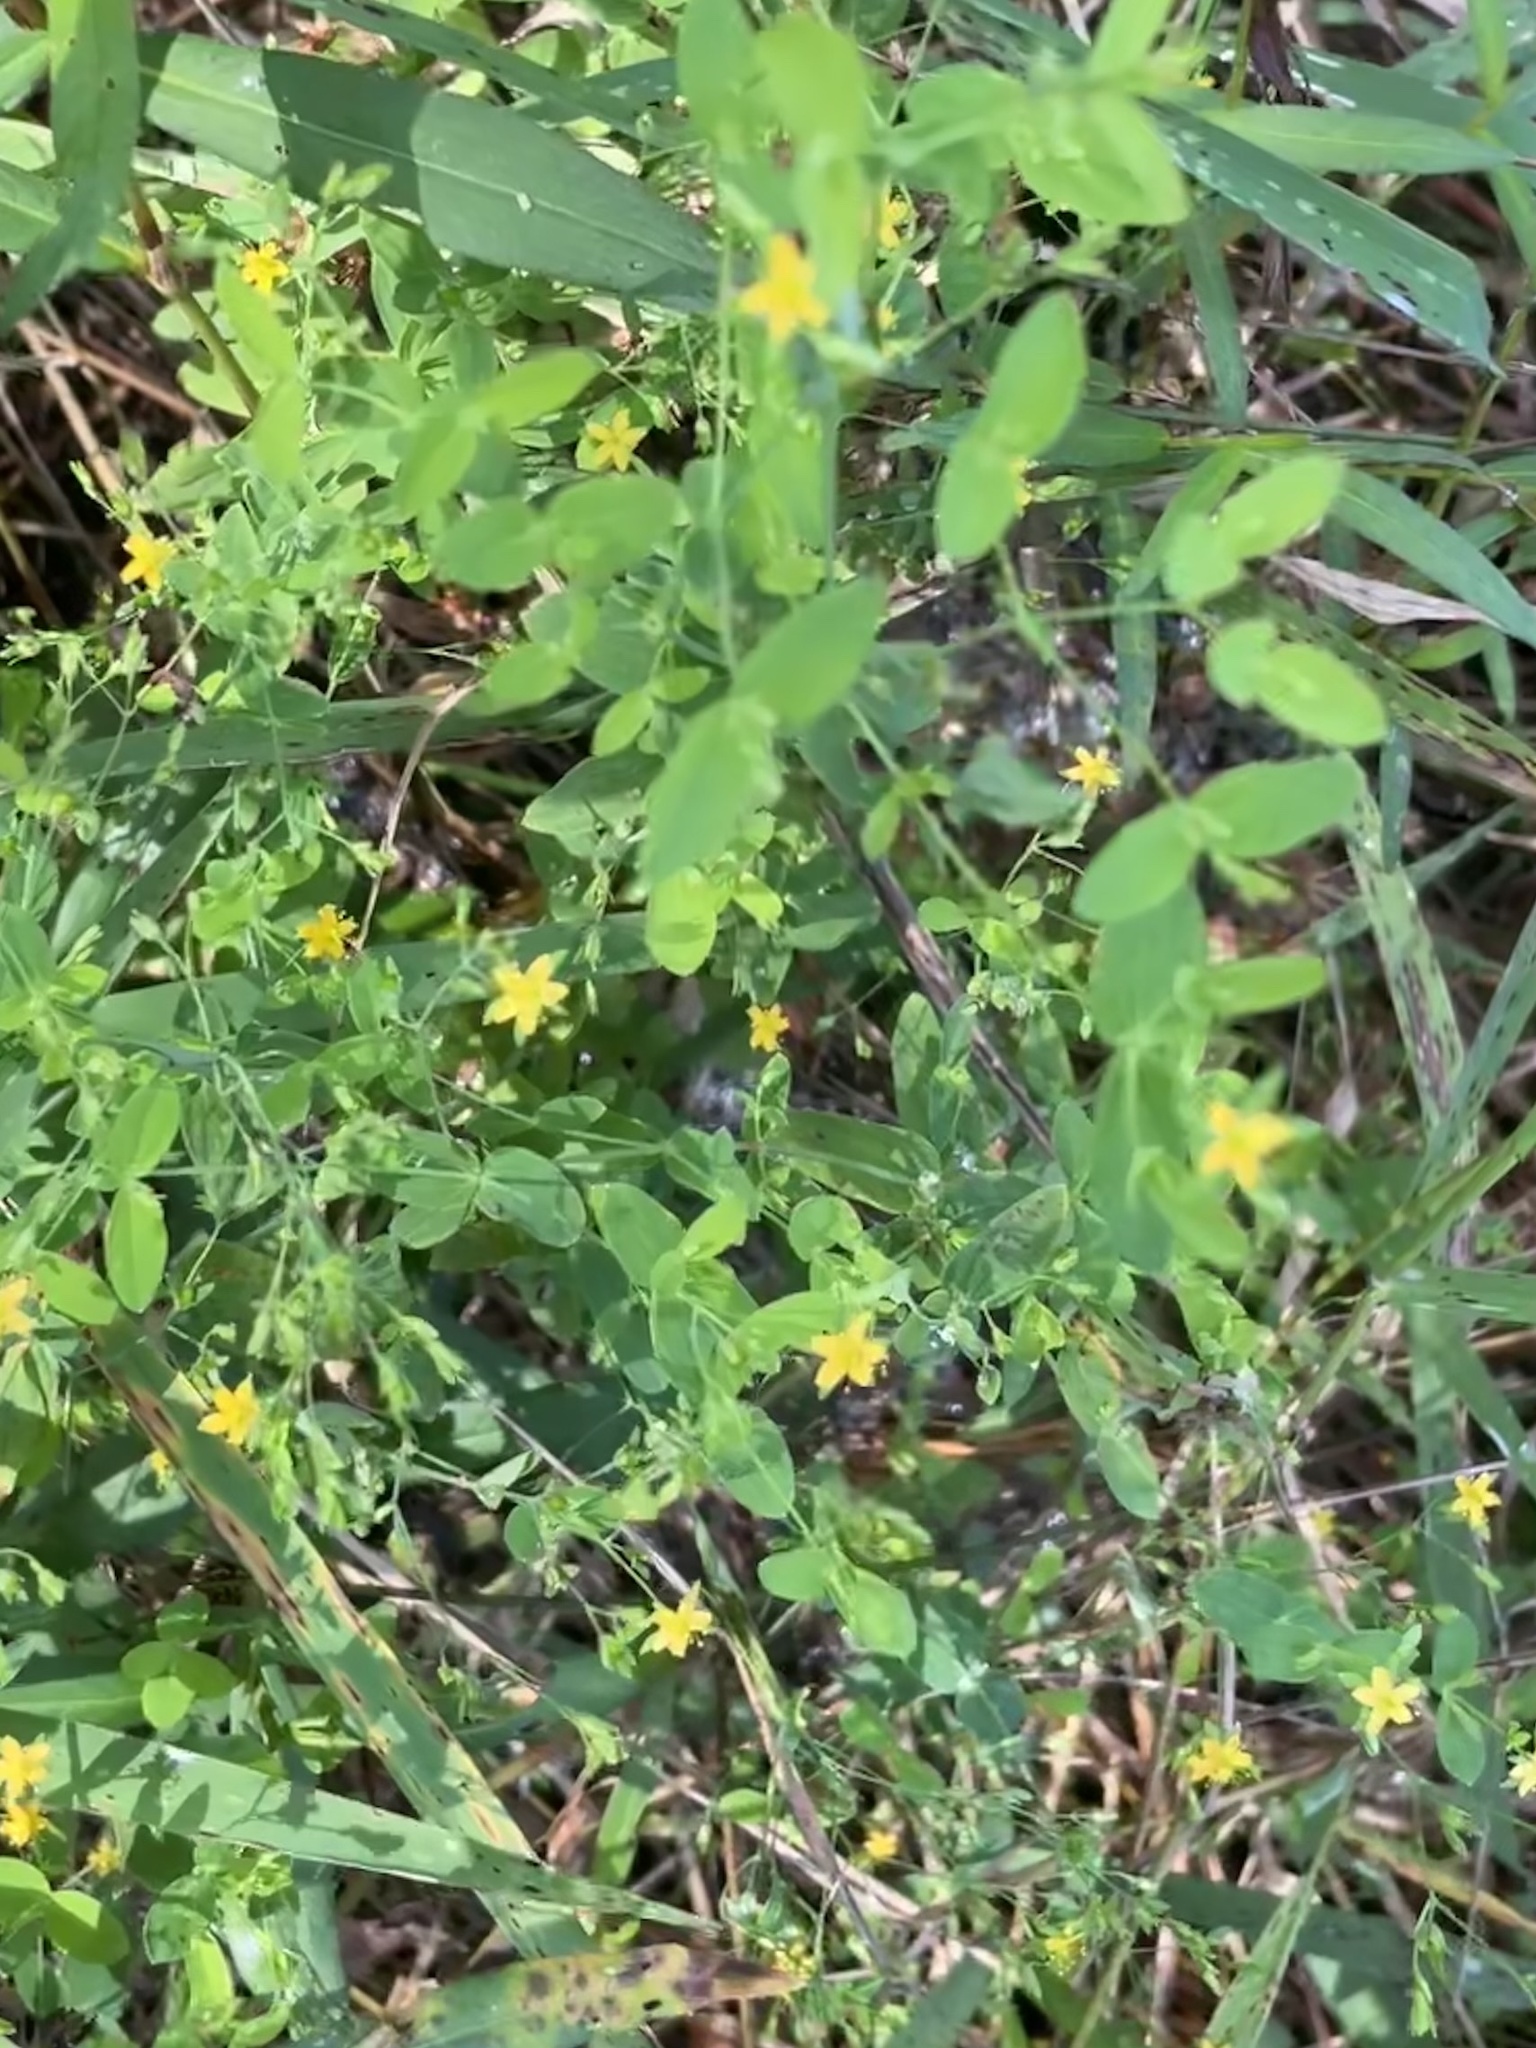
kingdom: Plantae
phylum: Tracheophyta
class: Magnoliopsida
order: Malpighiales
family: Hypericaceae
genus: Hypericum
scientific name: Hypericum mutilum
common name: Dwarf st. john's-wort
